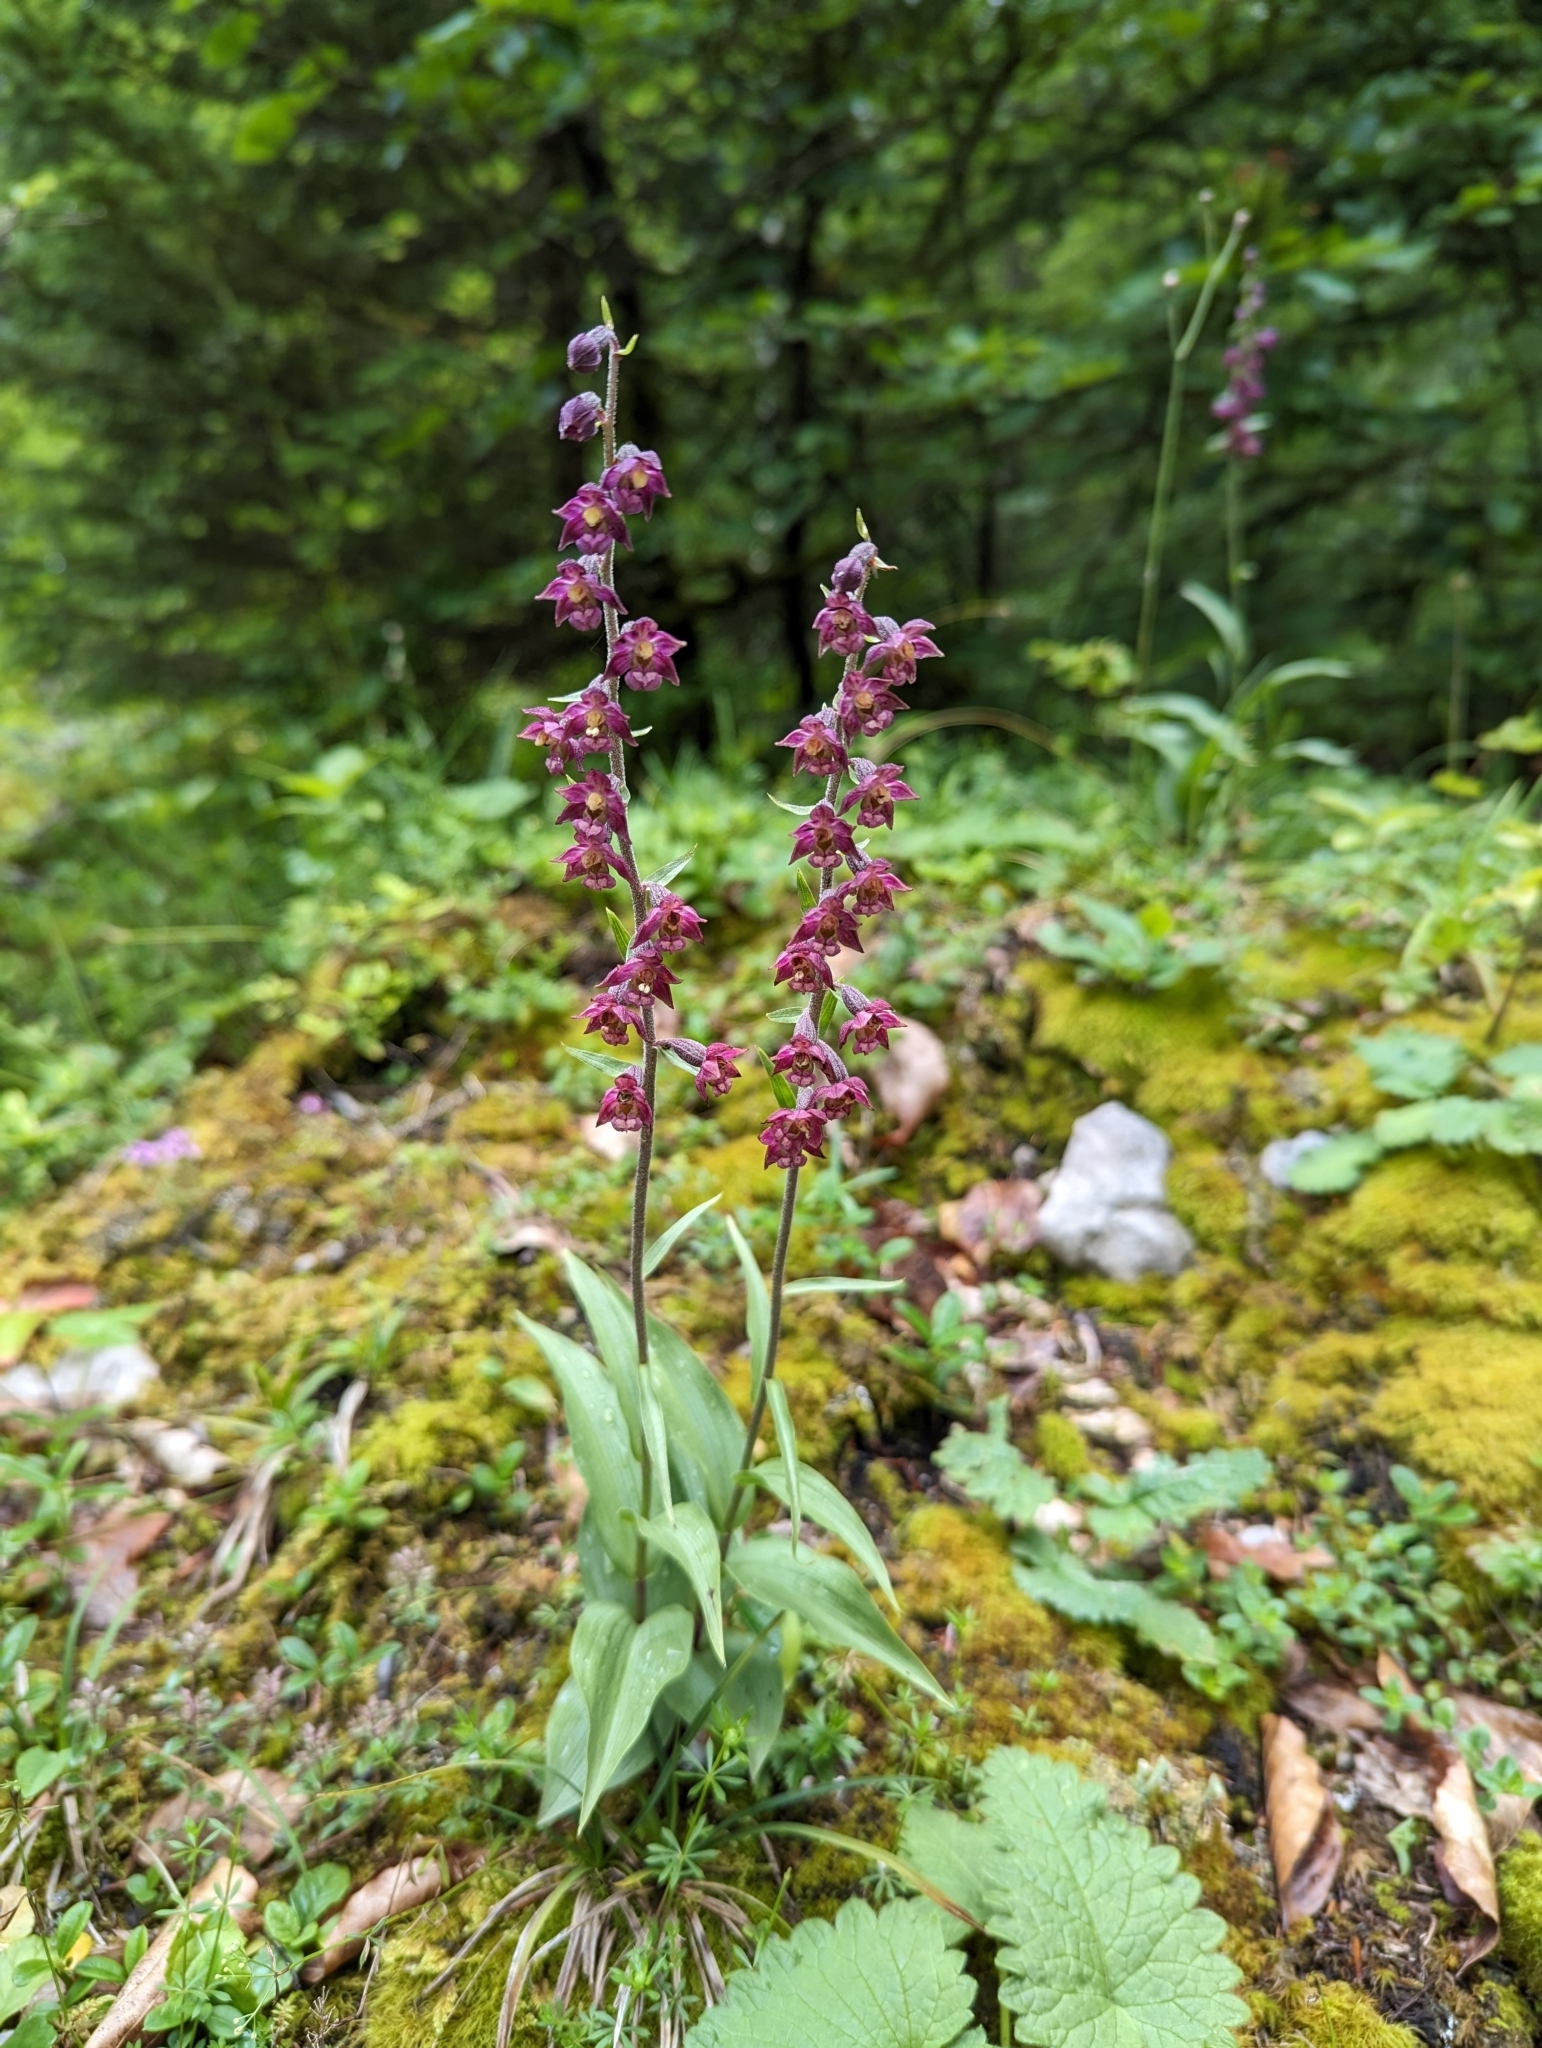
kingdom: Plantae
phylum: Tracheophyta
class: Liliopsida
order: Asparagales
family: Orchidaceae
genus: Epipactis
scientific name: Epipactis atrorubens
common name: Dark-red helleborine
